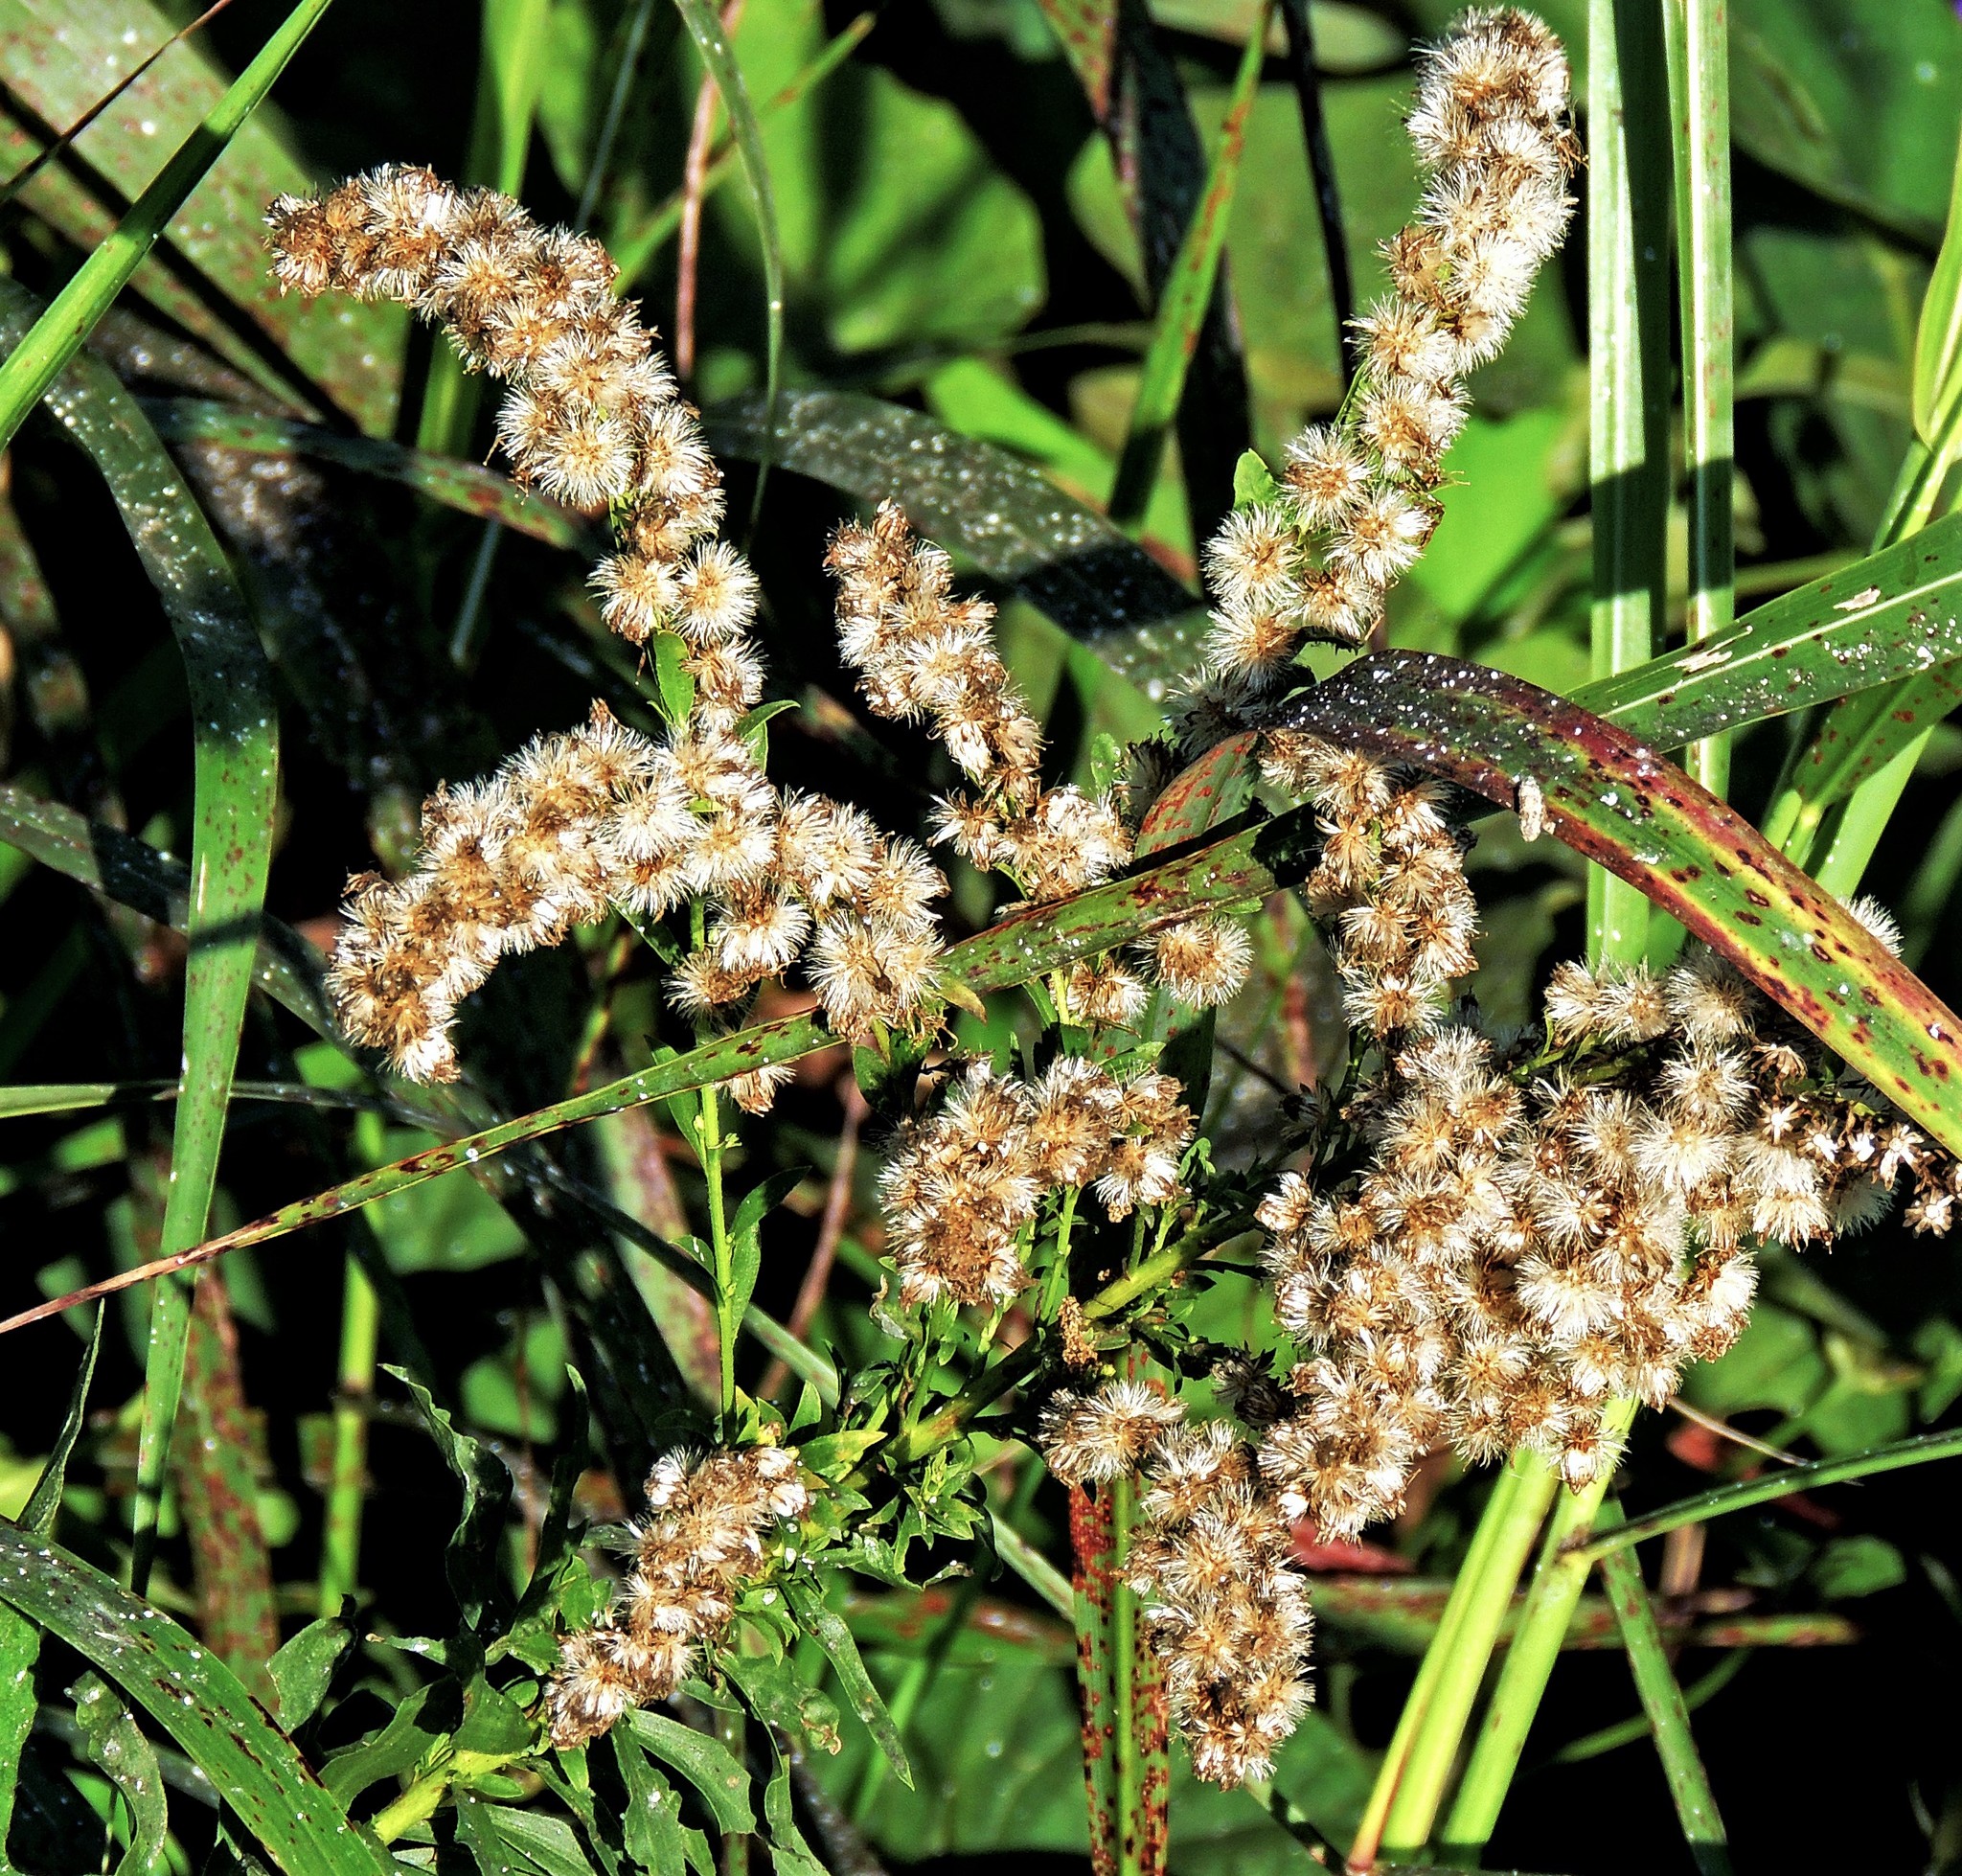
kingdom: Plantae
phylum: Tracheophyta
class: Magnoliopsida
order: Asterales
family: Asteraceae
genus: Solidago
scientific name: Solidago chilensis
